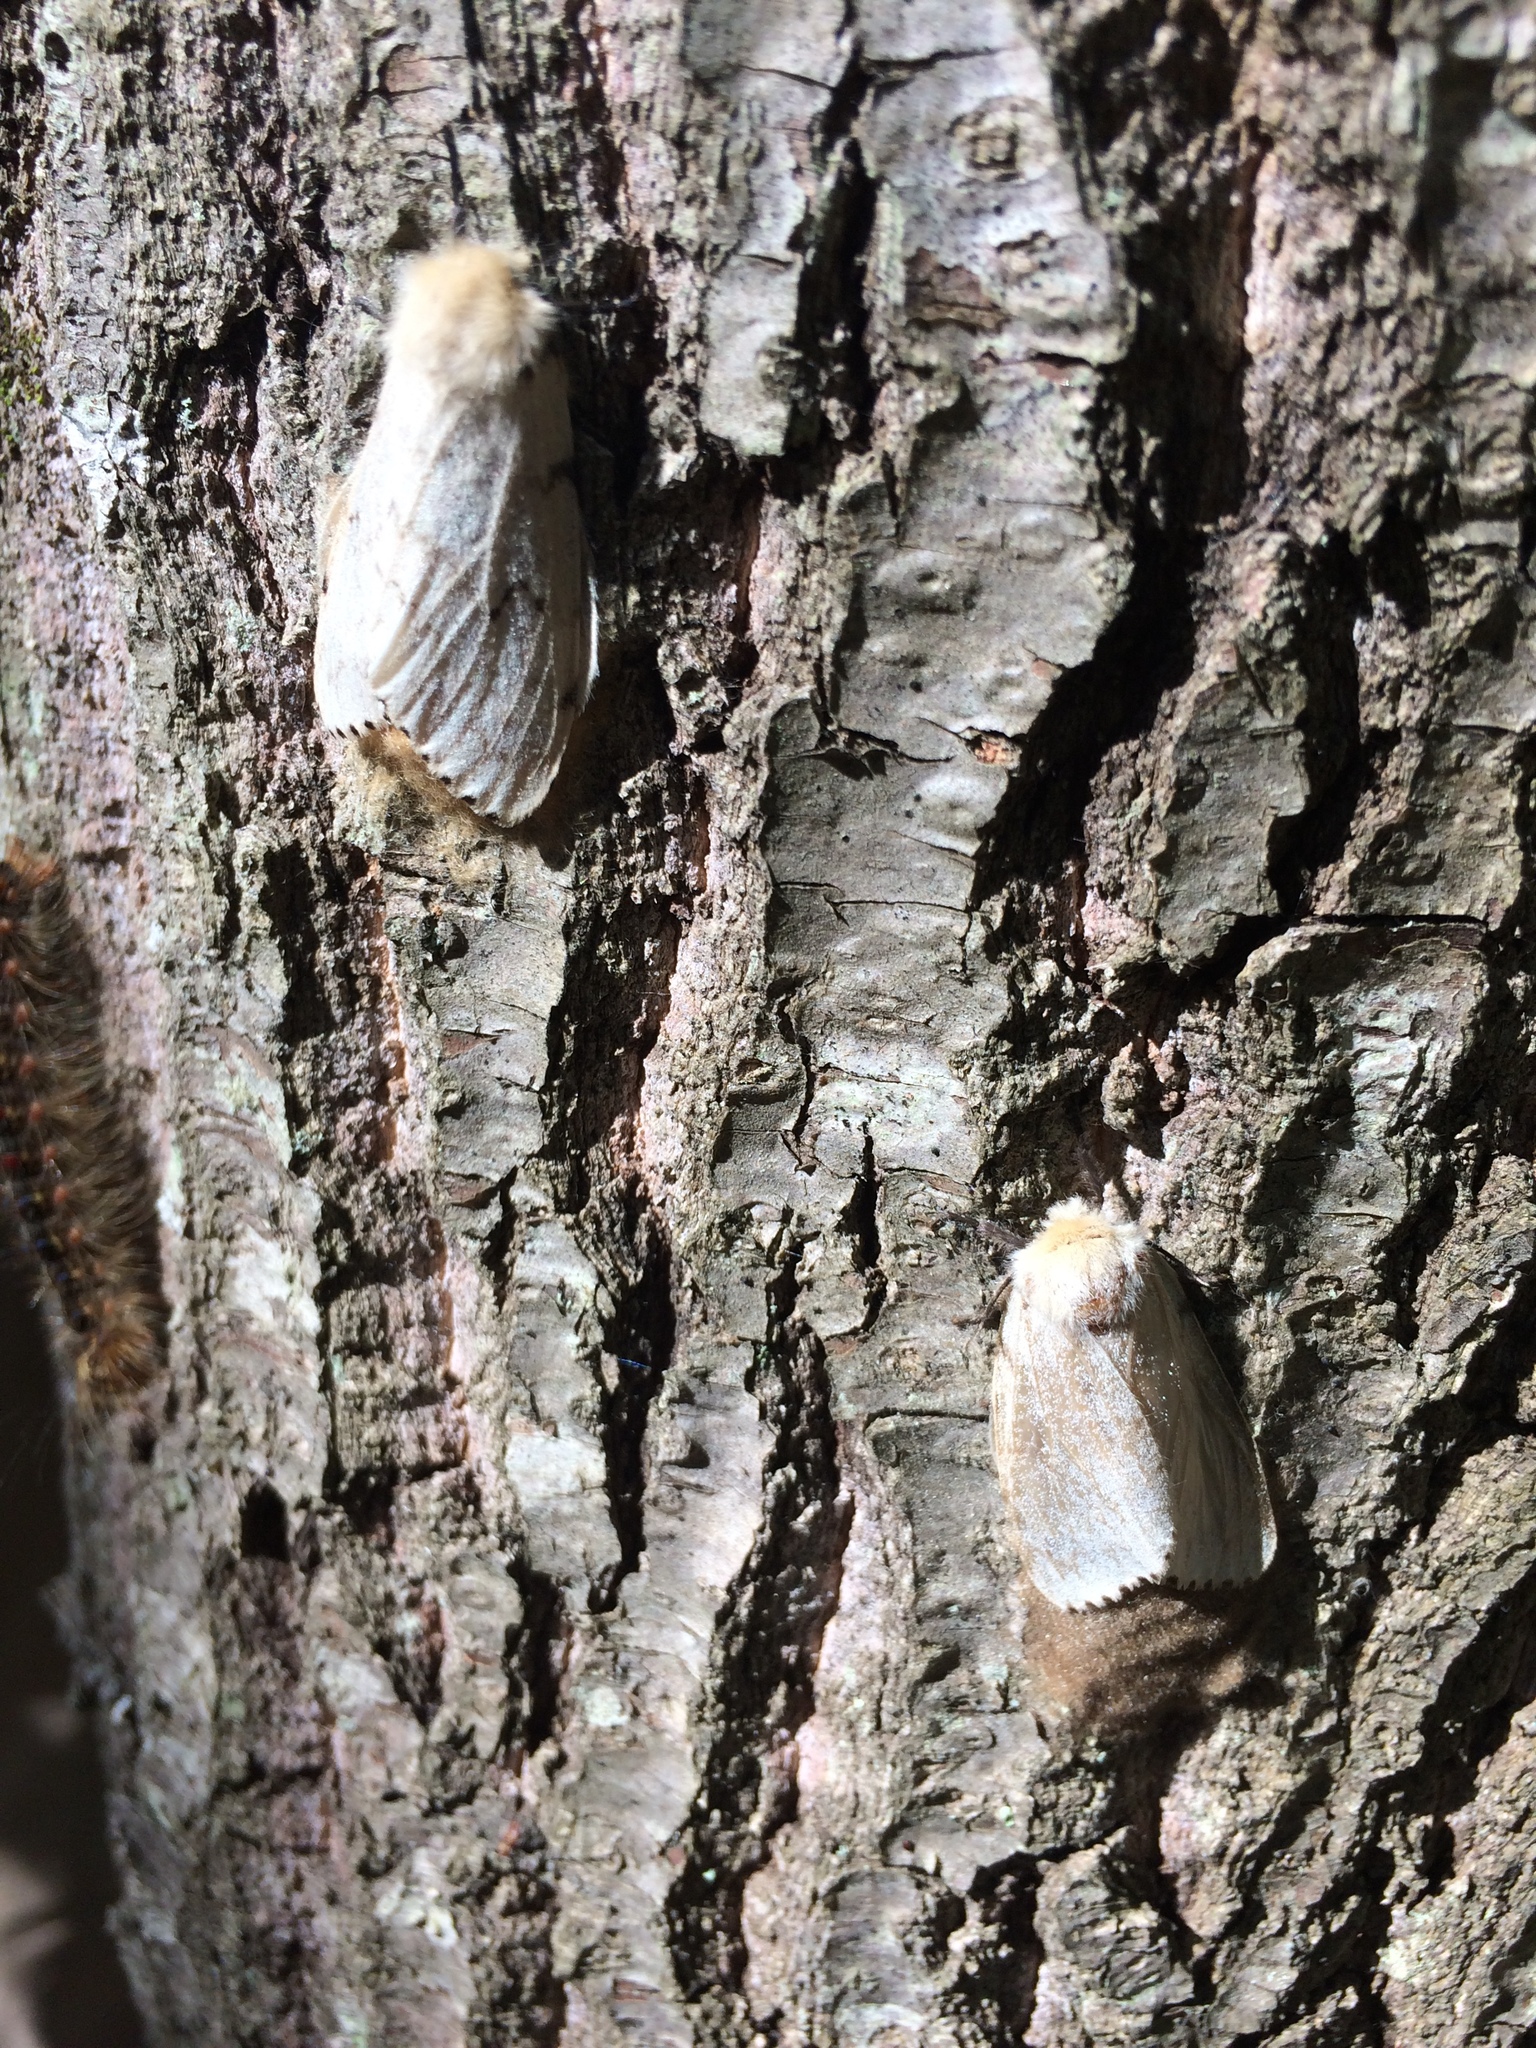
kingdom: Animalia
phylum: Arthropoda
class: Insecta
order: Lepidoptera
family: Erebidae
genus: Lymantria
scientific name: Lymantria dispar
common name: Gypsy moth
